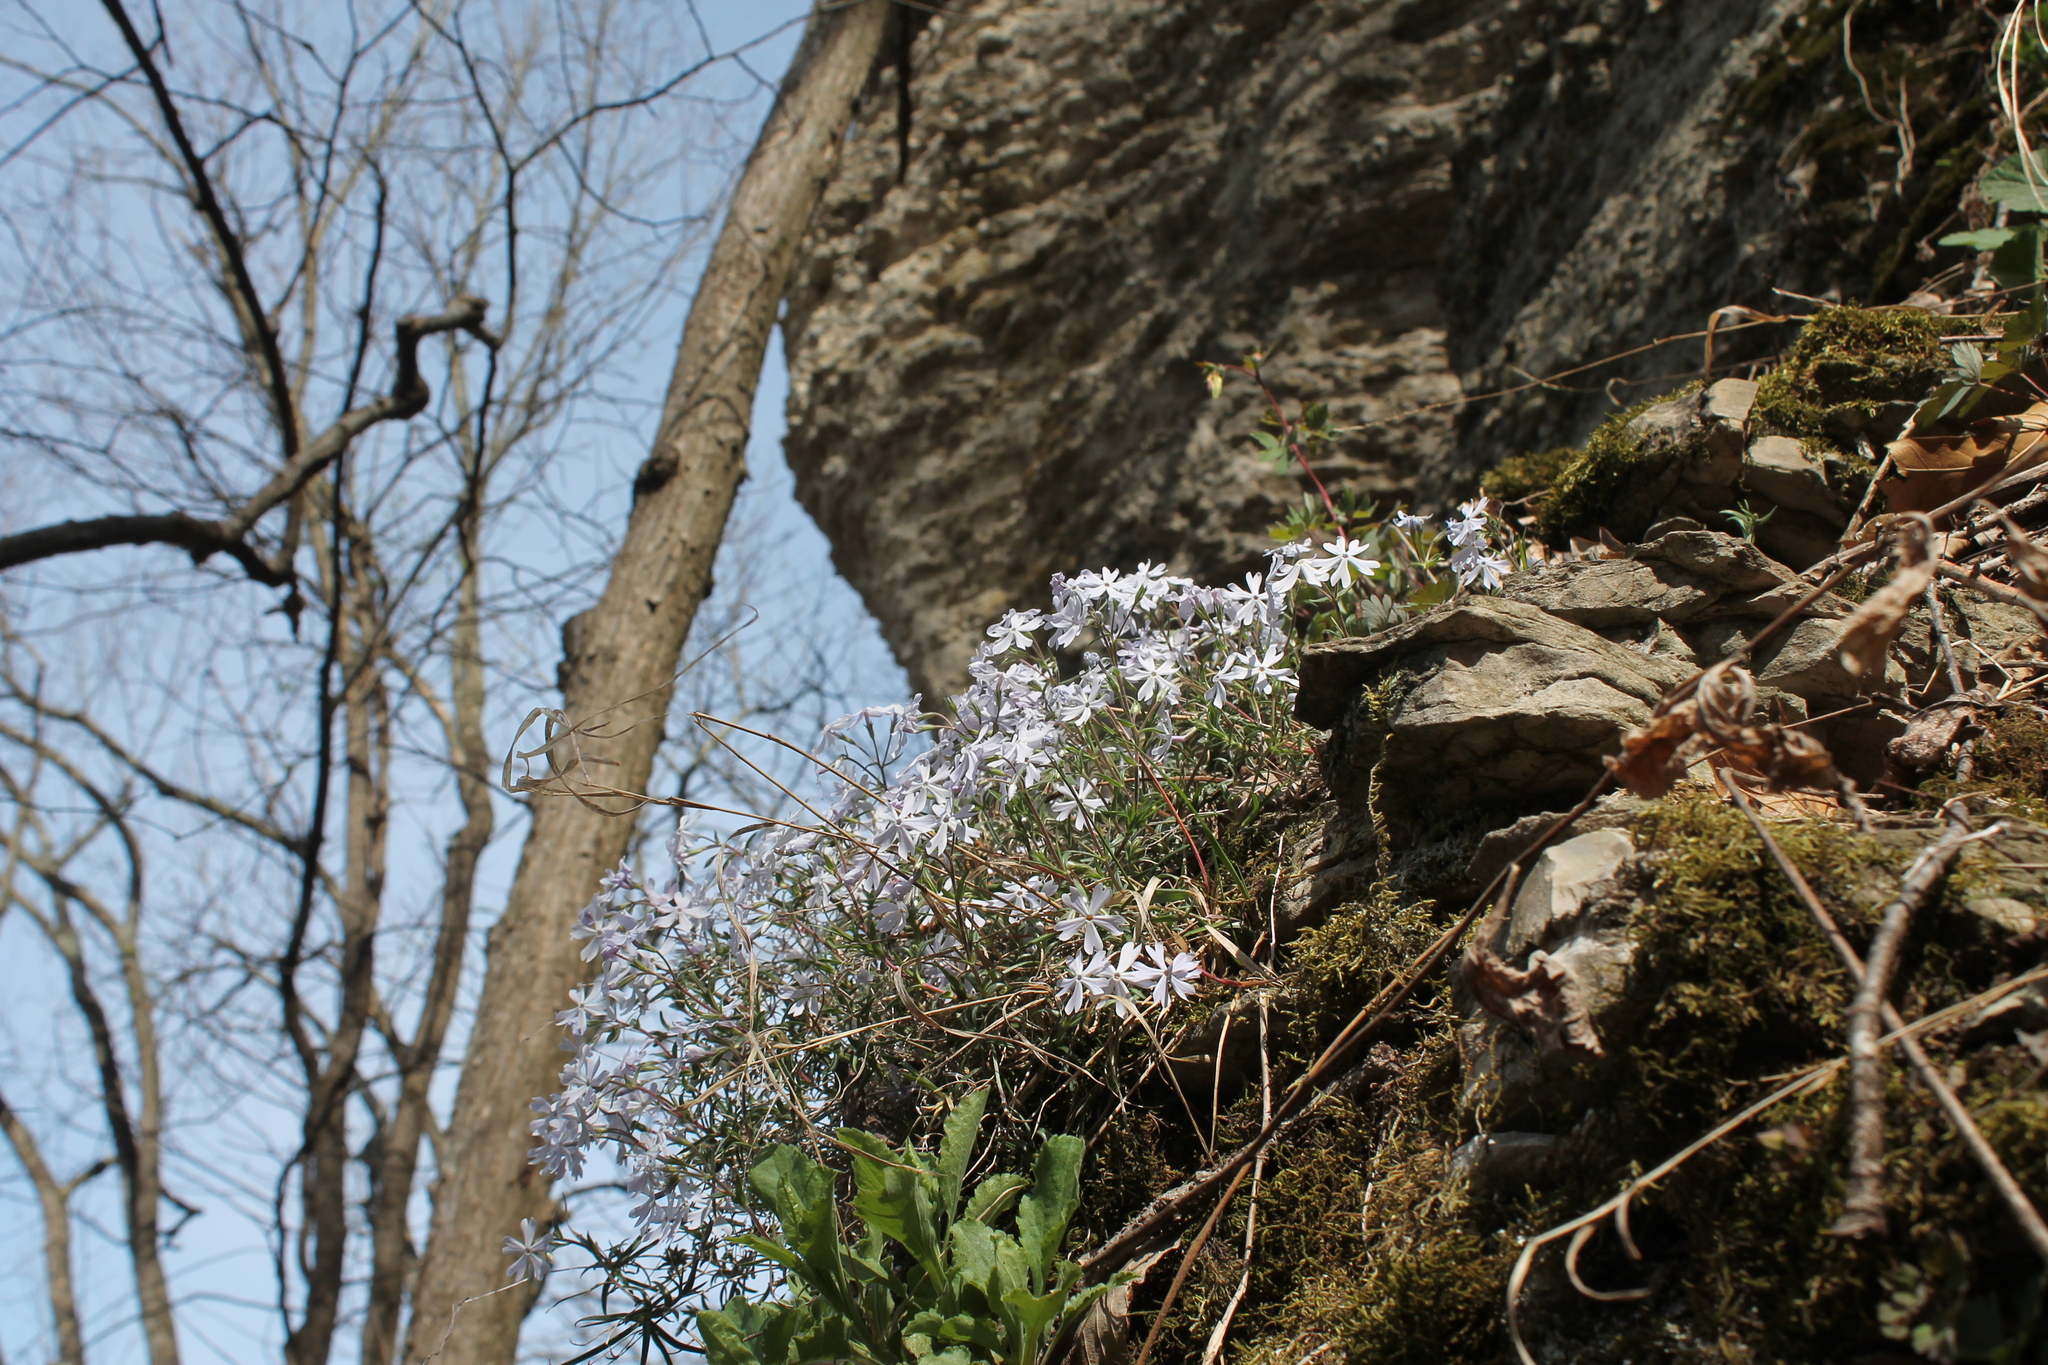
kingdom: Plantae
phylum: Tracheophyta
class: Magnoliopsida
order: Ericales
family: Polemoniaceae
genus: Phlox
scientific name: Phlox bifida
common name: Sand phlox
